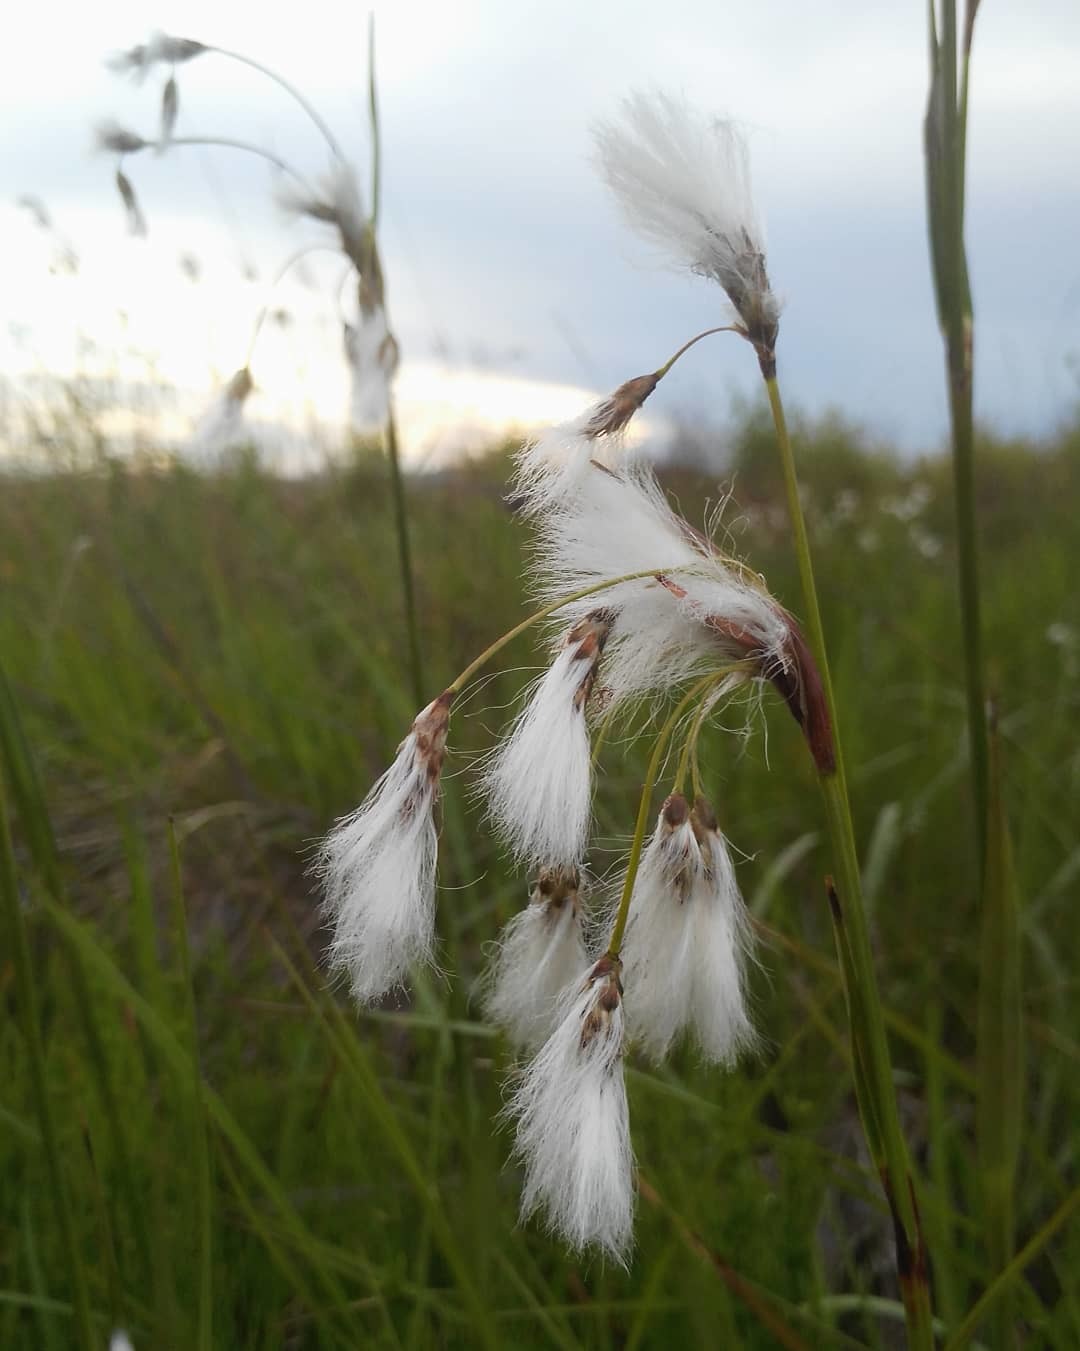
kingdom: Plantae
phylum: Tracheophyta
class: Liliopsida
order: Poales
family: Cyperaceae
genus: Eriophorum
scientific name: Eriophorum angustifolium
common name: Common cottongrass
